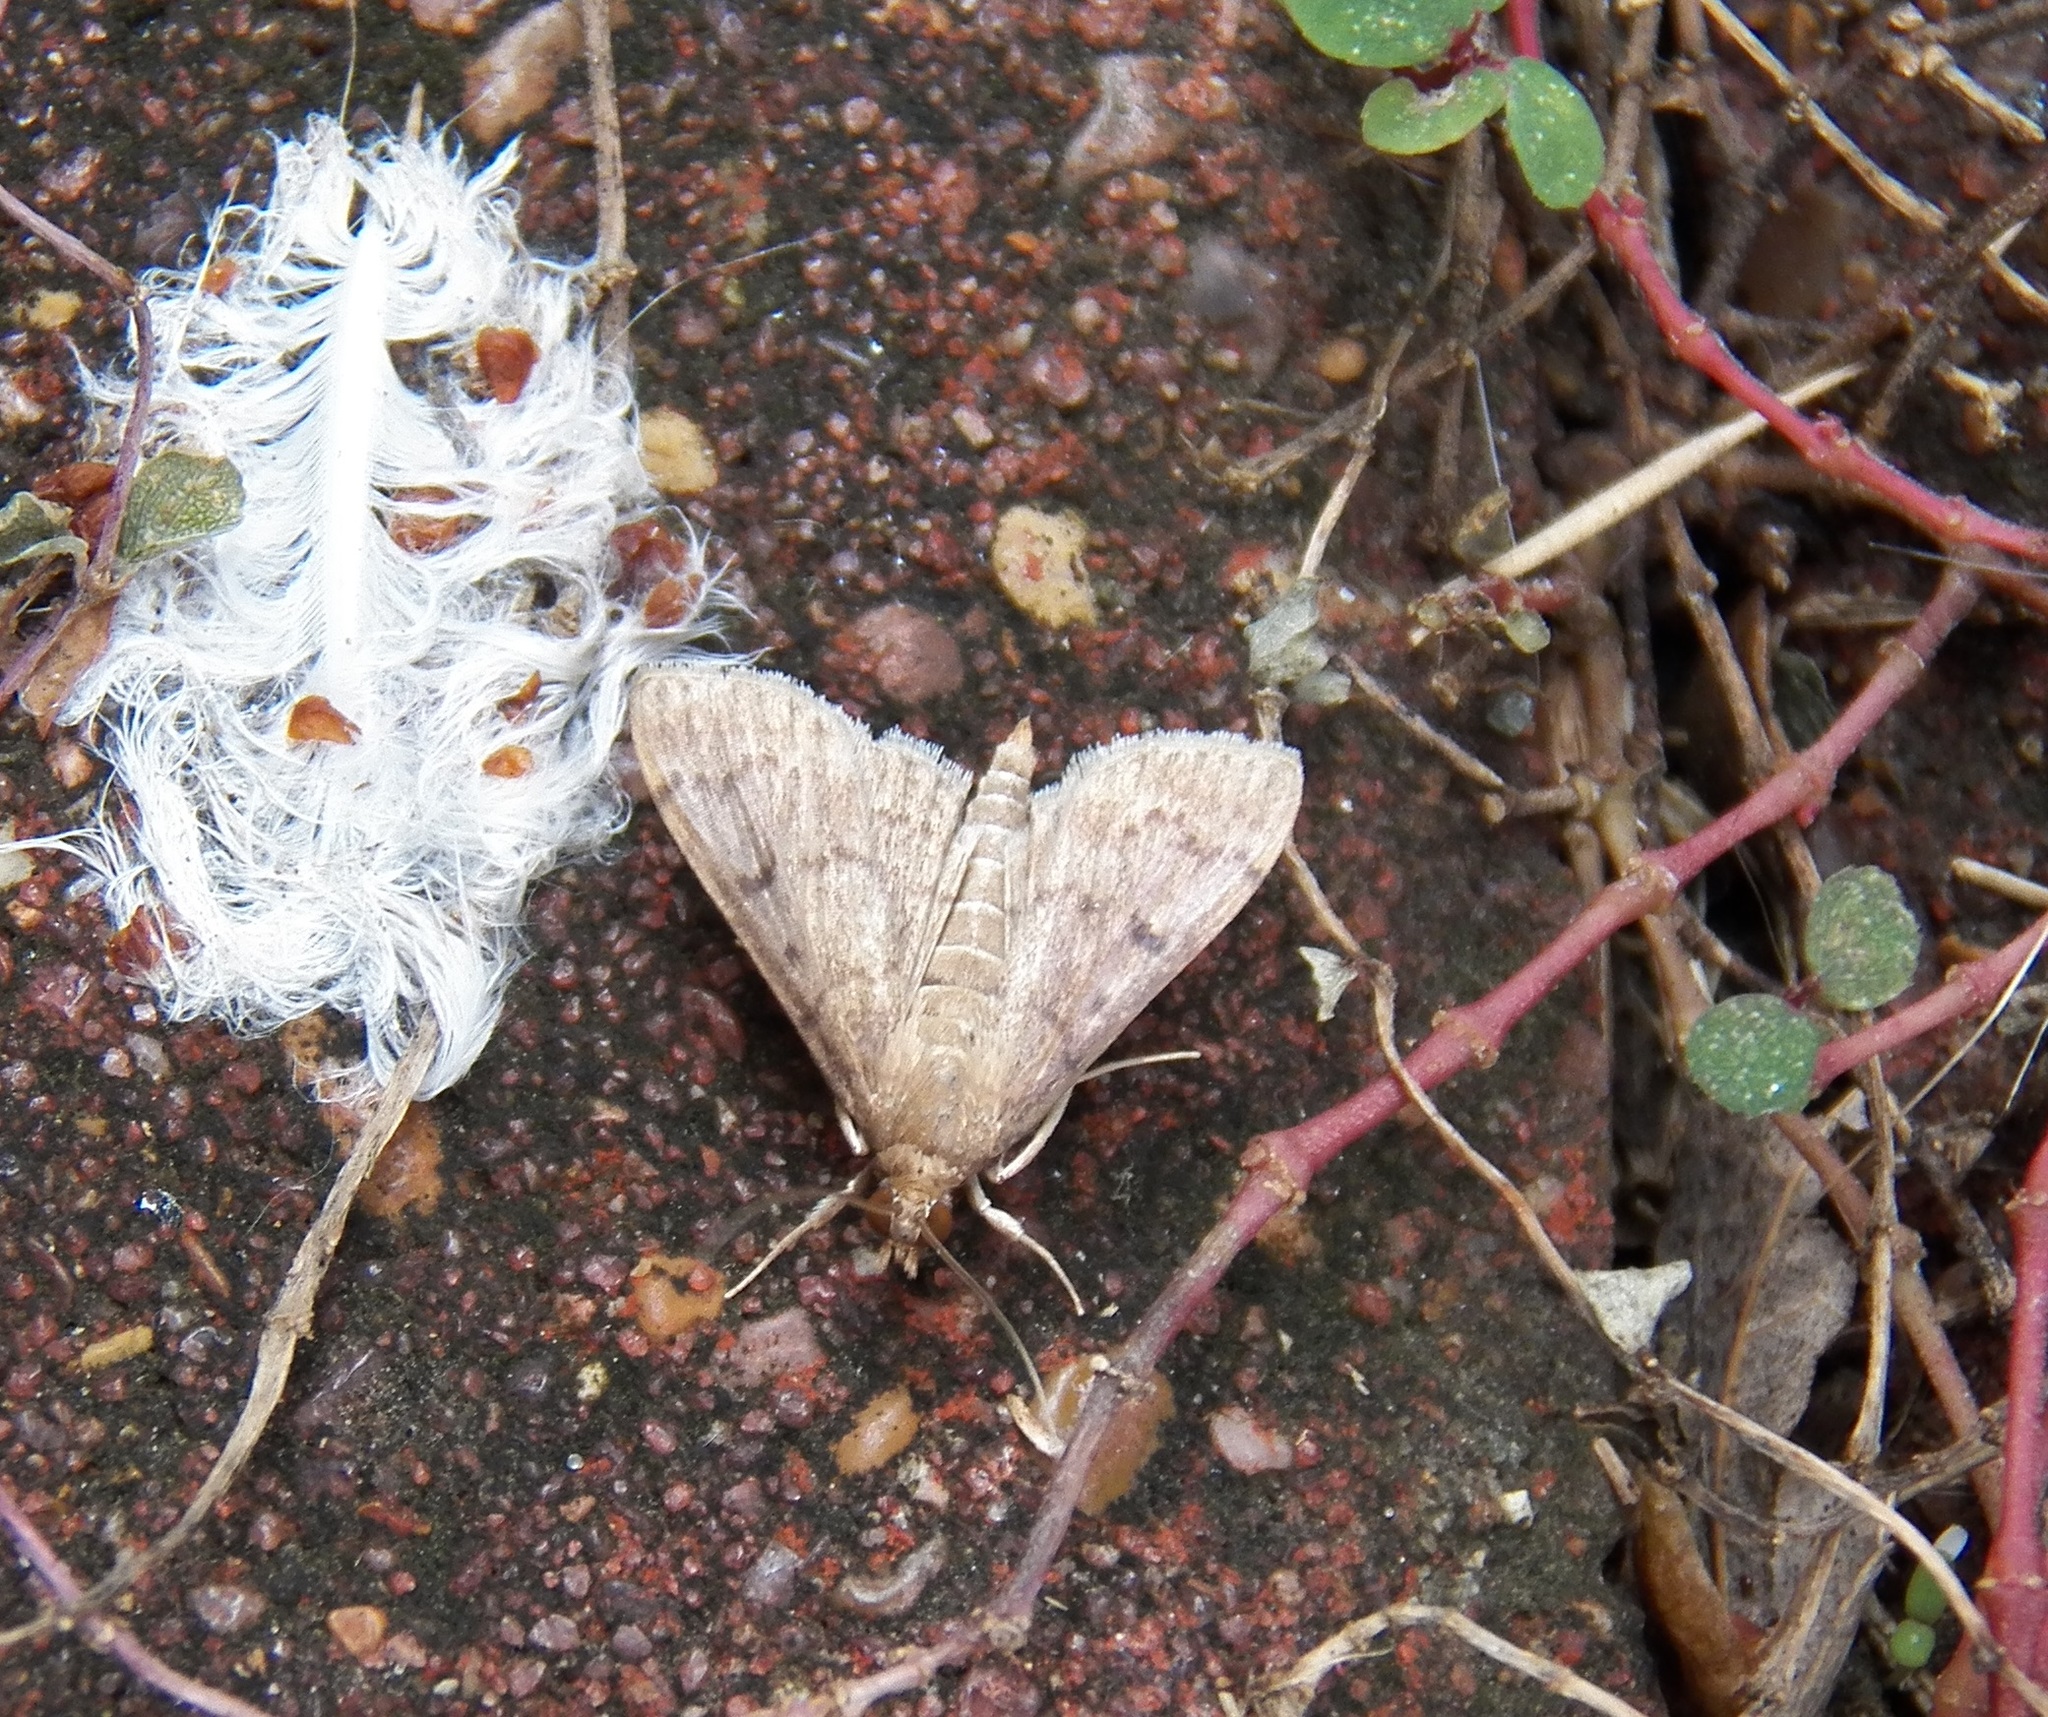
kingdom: Animalia
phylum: Arthropoda
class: Insecta
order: Lepidoptera
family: Crambidae
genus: Herpetogramma
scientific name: Herpetogramma phaeopteralis
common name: Dusky herpetogramma moth
